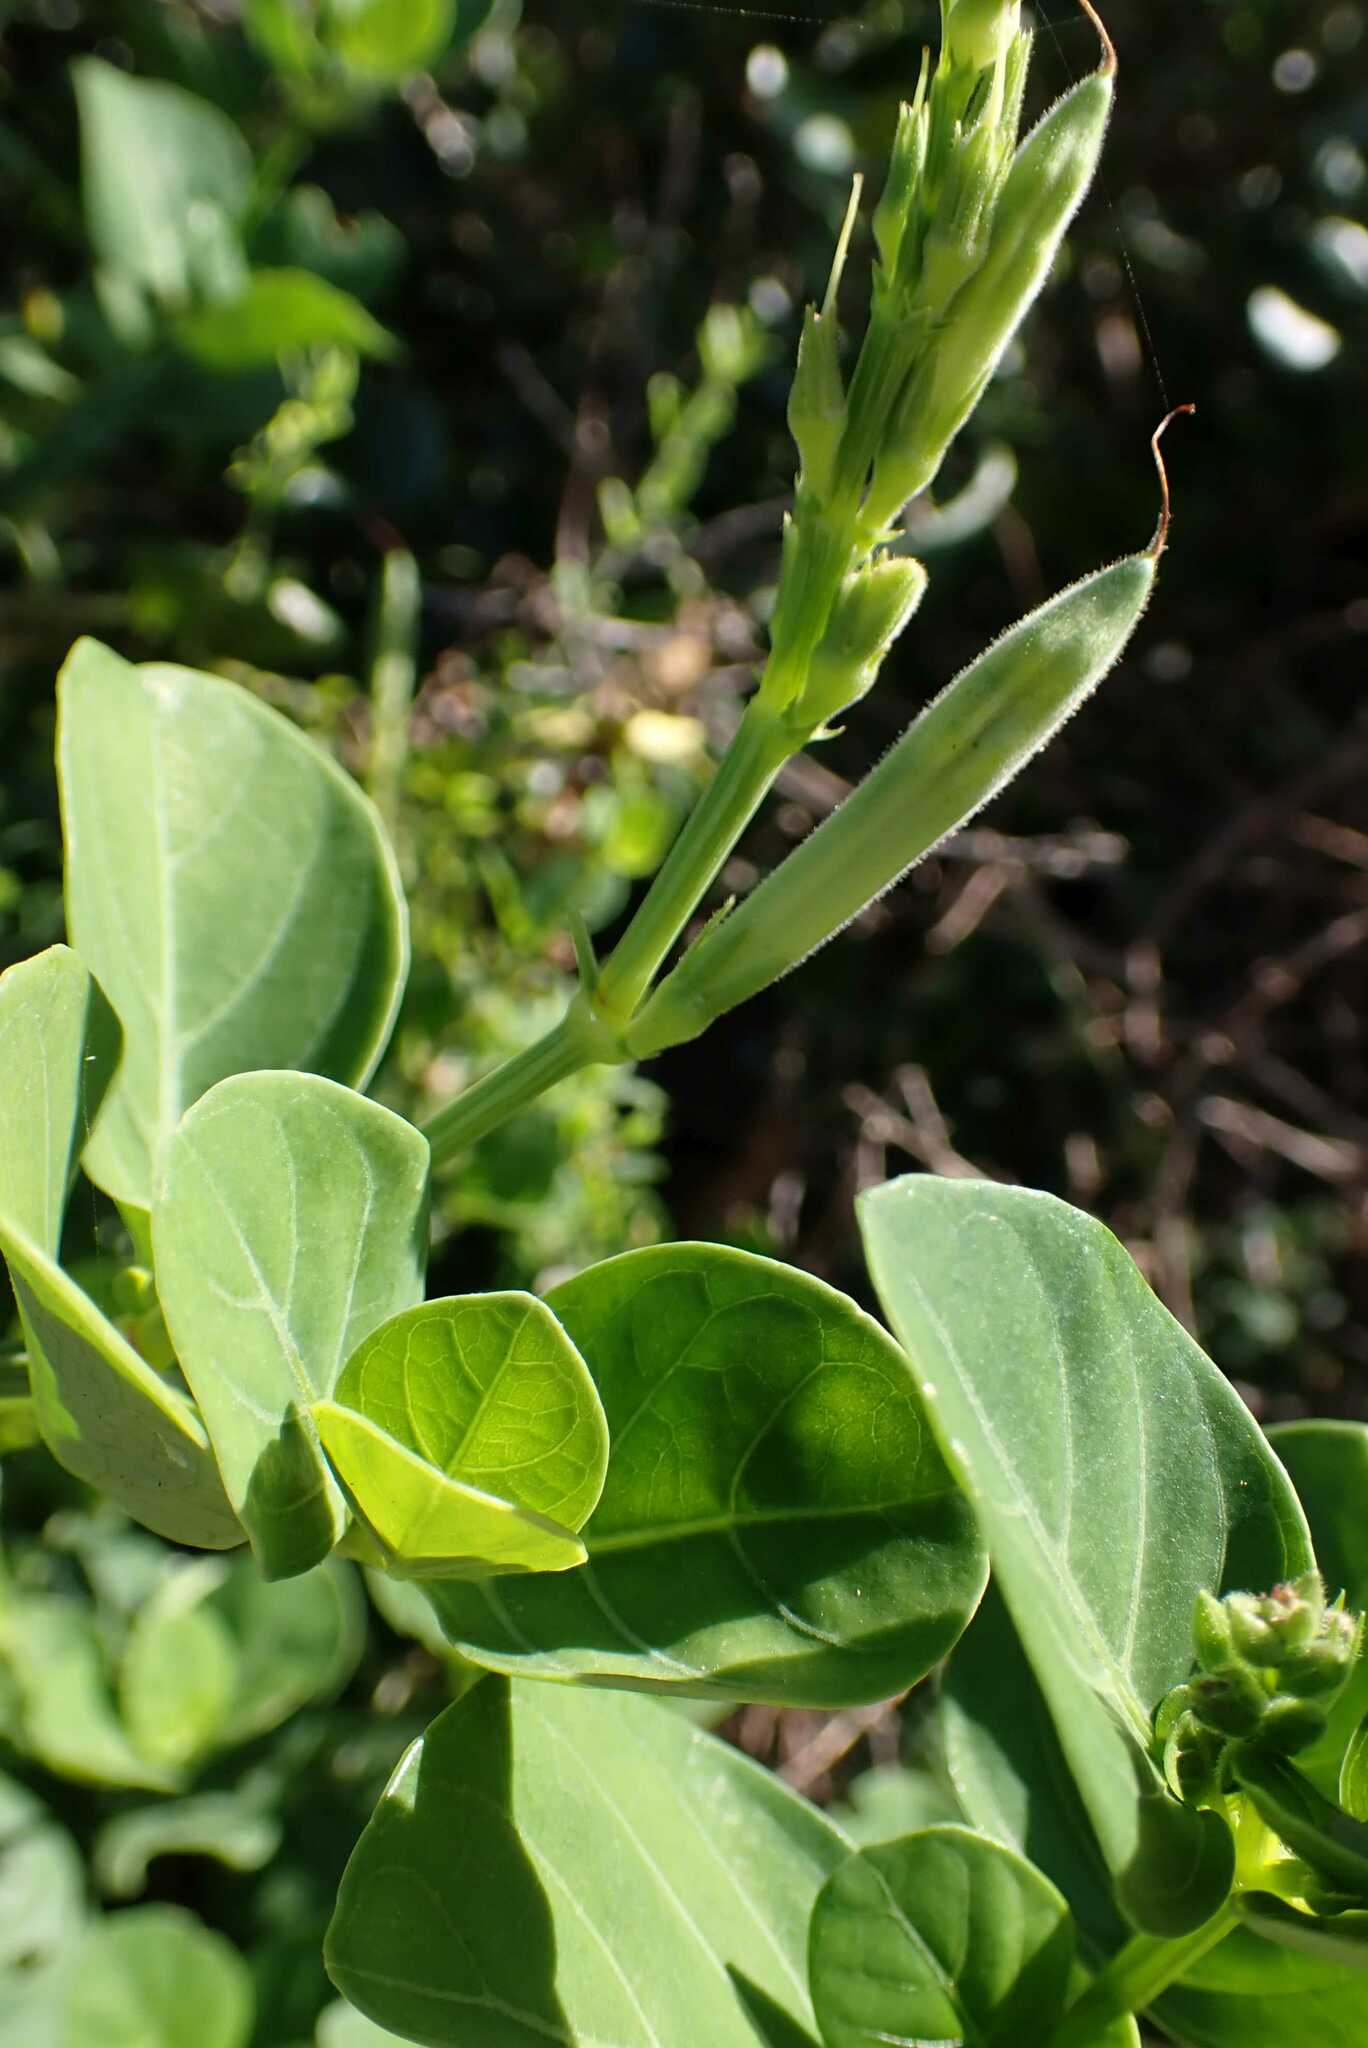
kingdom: Plantae
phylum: Tracheophyta
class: Magnoliopsida
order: Lamiales
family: Acanthaceae
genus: Asystasia
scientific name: Asystasia intrusa
